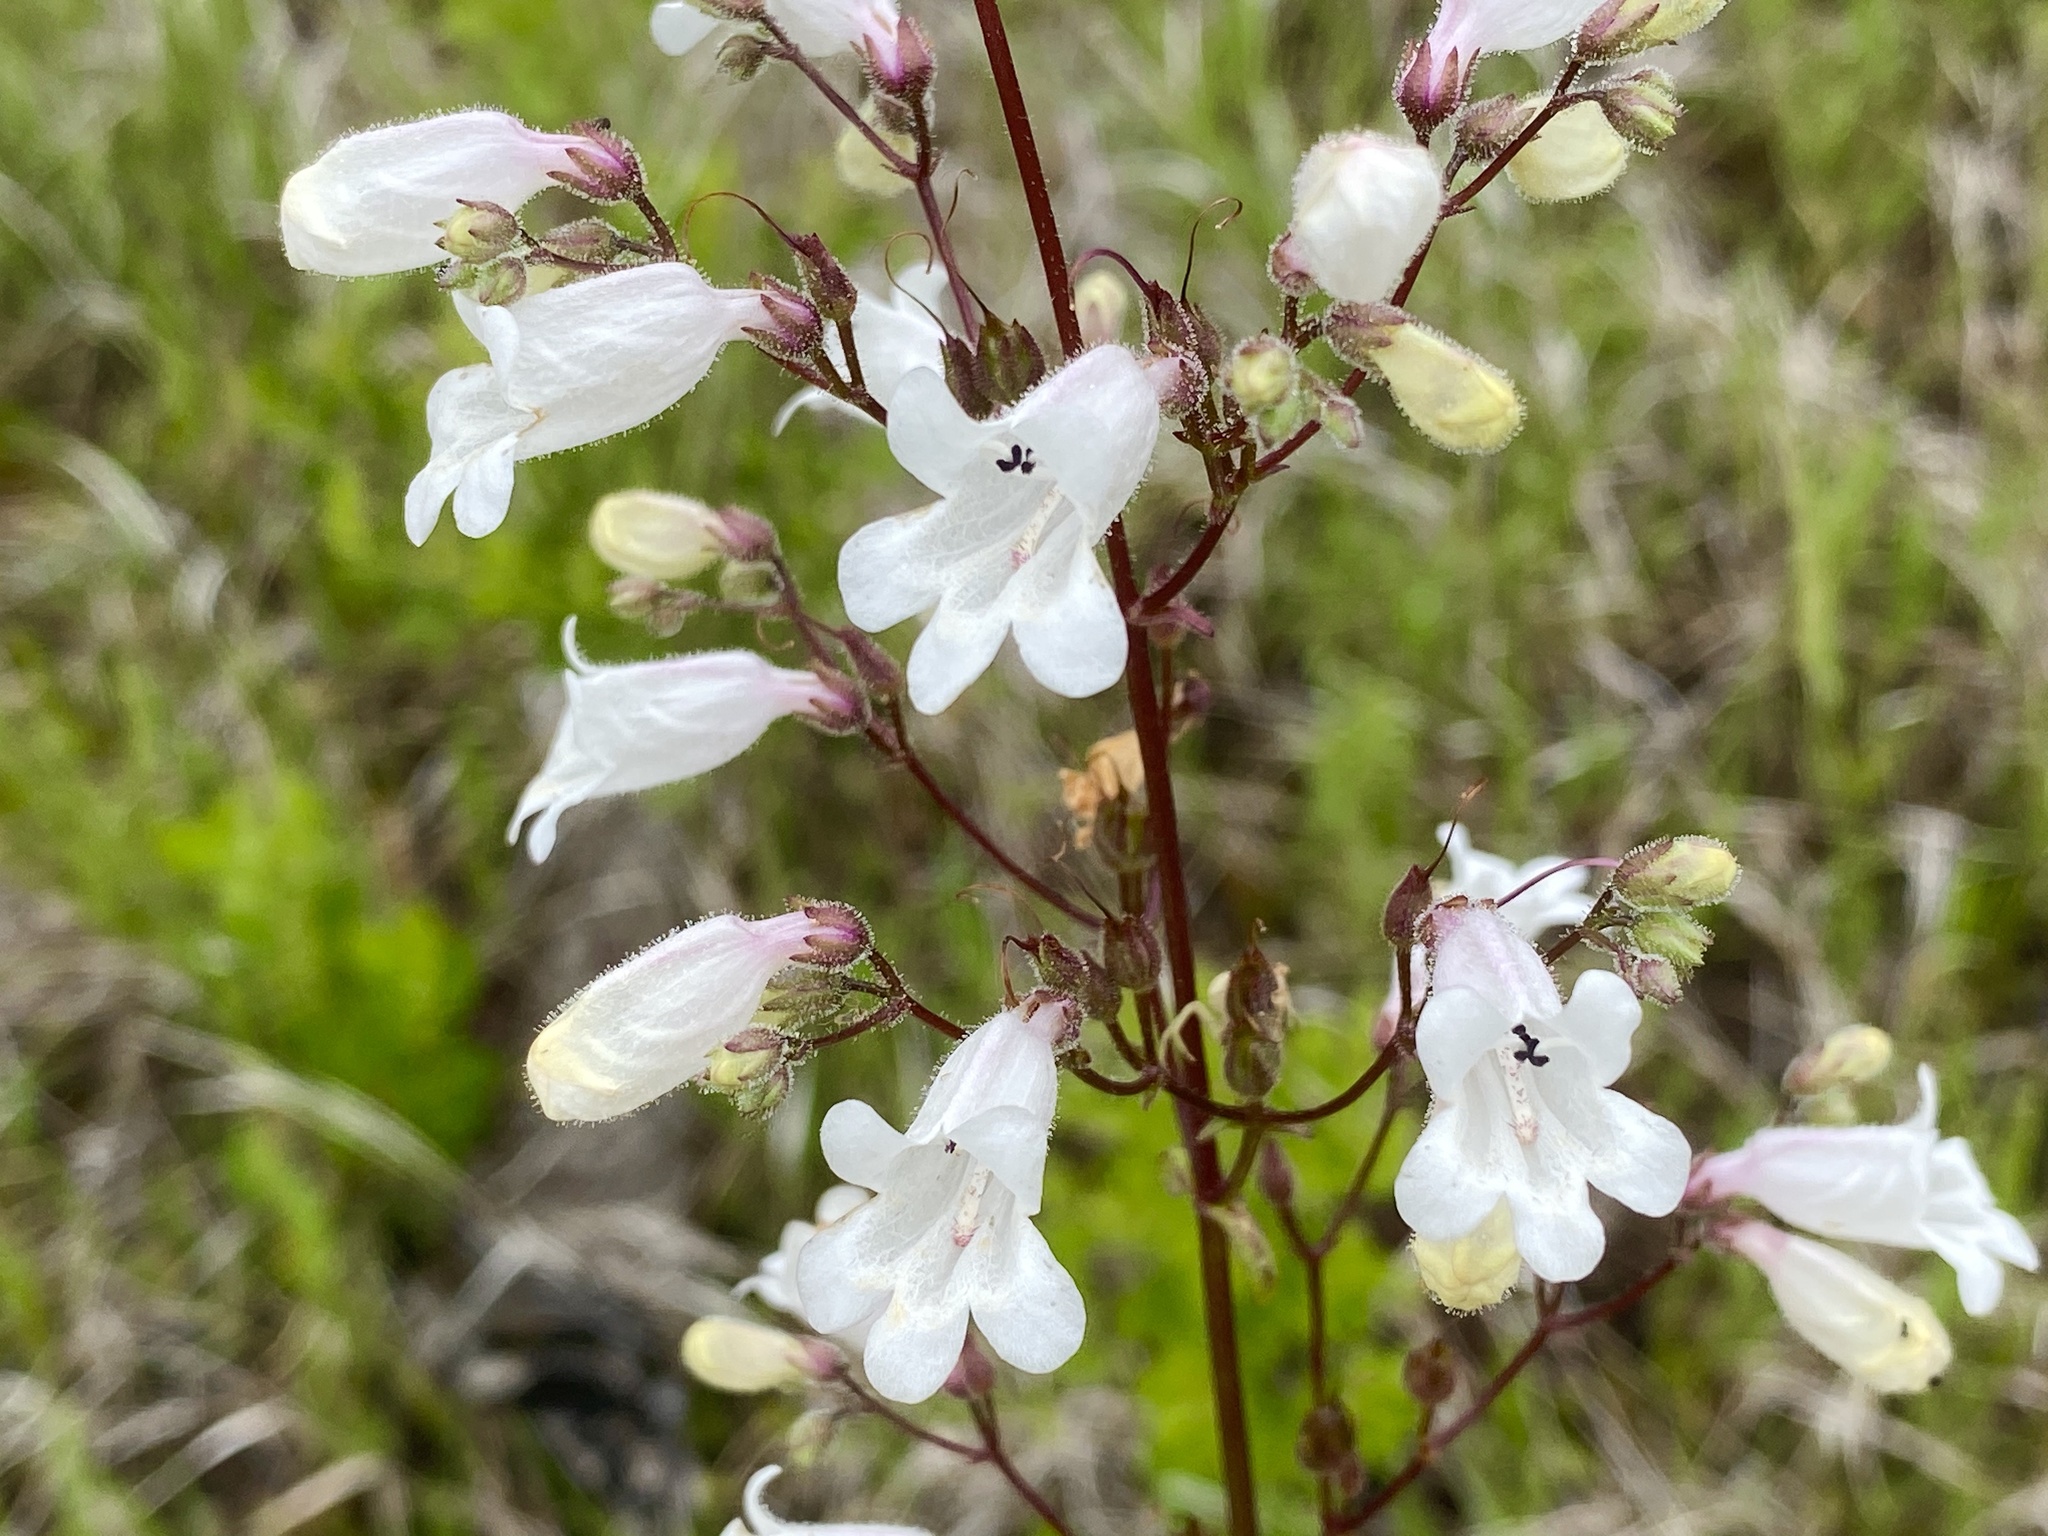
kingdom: Plantae
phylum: Tracheophyta
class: Magnoliopsida
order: Lamiales
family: Plantaginaceae
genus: Penstemon
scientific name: Penstemon multiflorus
